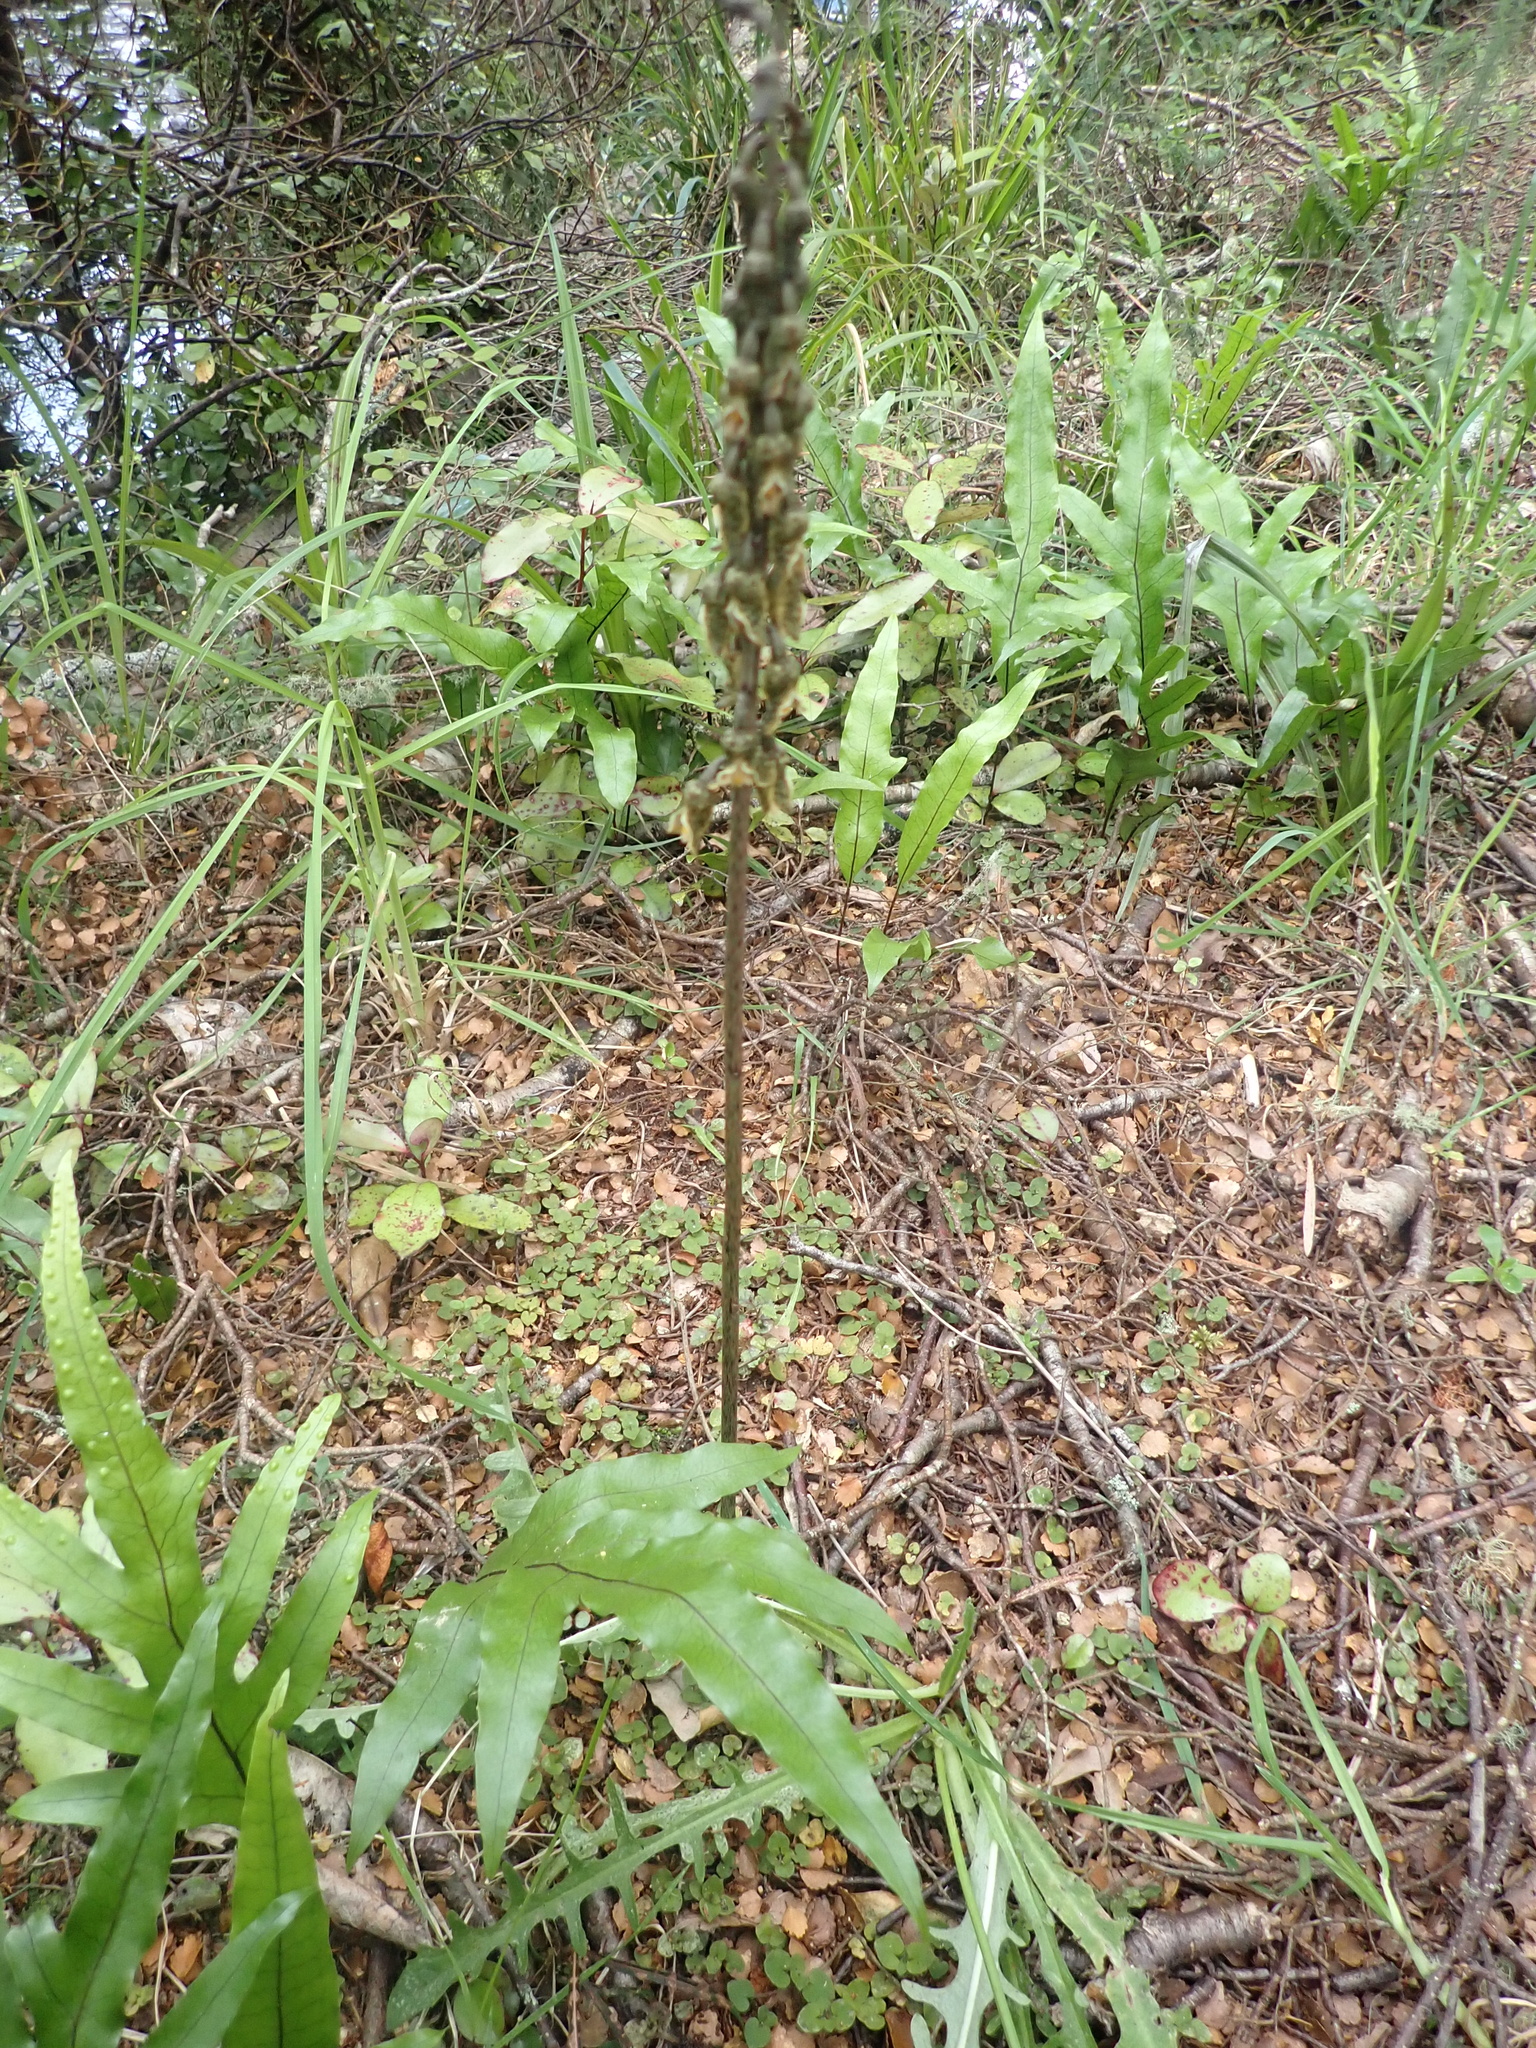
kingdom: Plantae
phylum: Tracheophyta
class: Liliopsida
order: Asparagales
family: Orchidaceae
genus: Gastrodia
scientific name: Gastrodia molloyi
